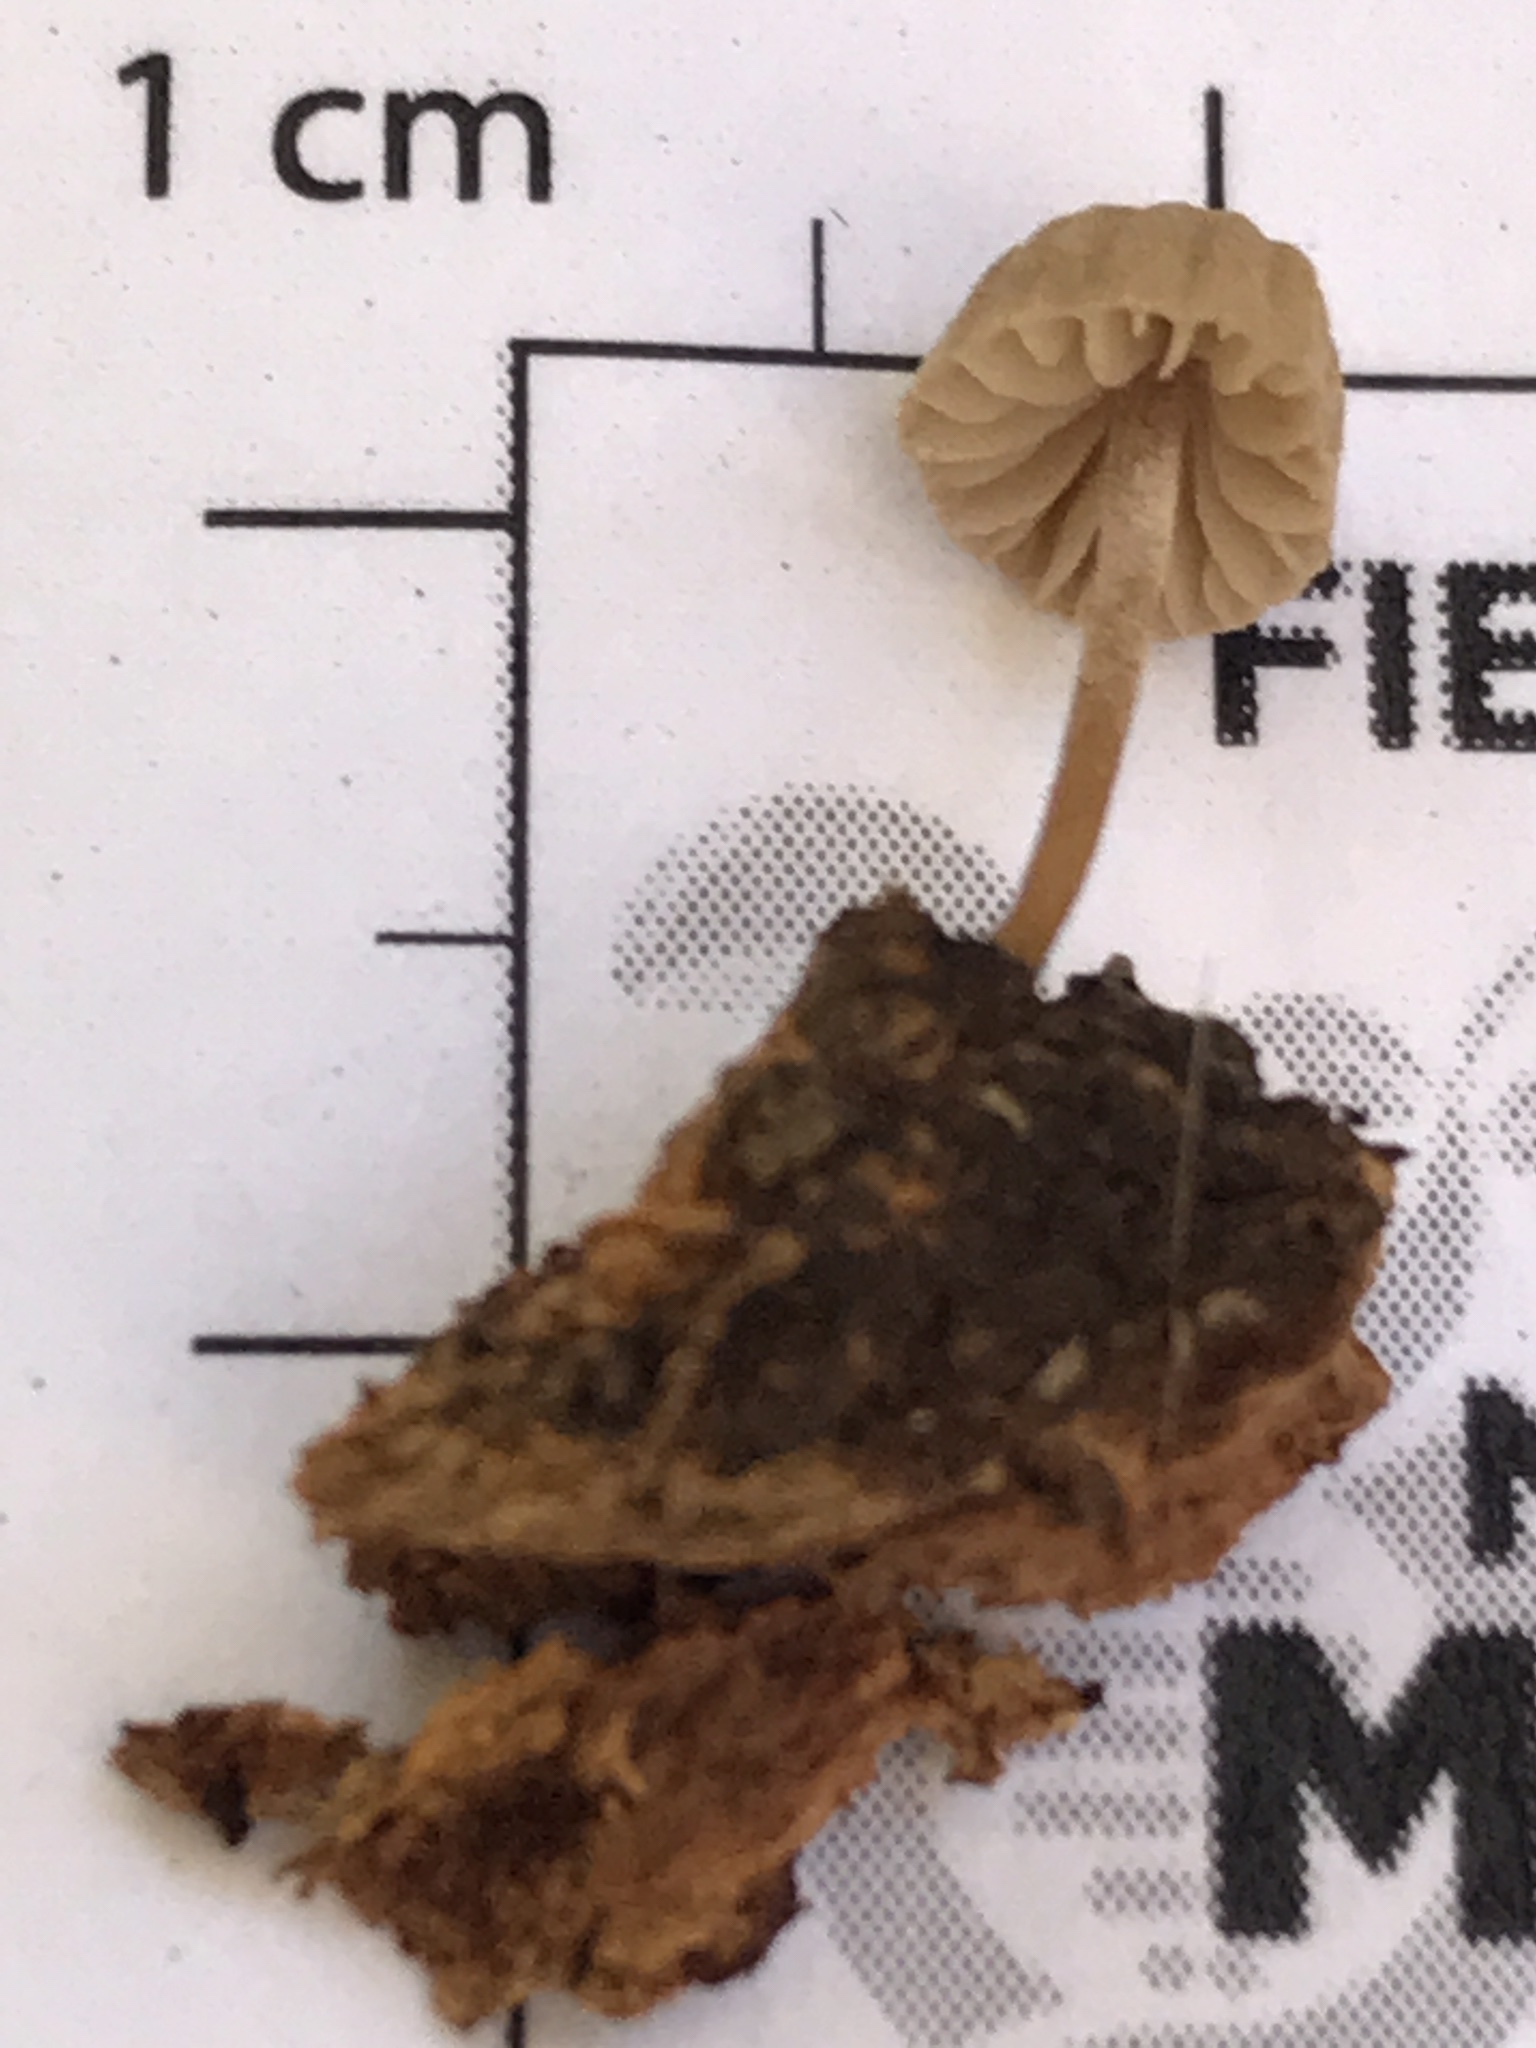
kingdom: Fungi
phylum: Basidiomycota
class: Agaricomycetes
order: Agaricales
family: Mycenaceae
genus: Mycena
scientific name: Mycena corticola
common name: Bark mycena
